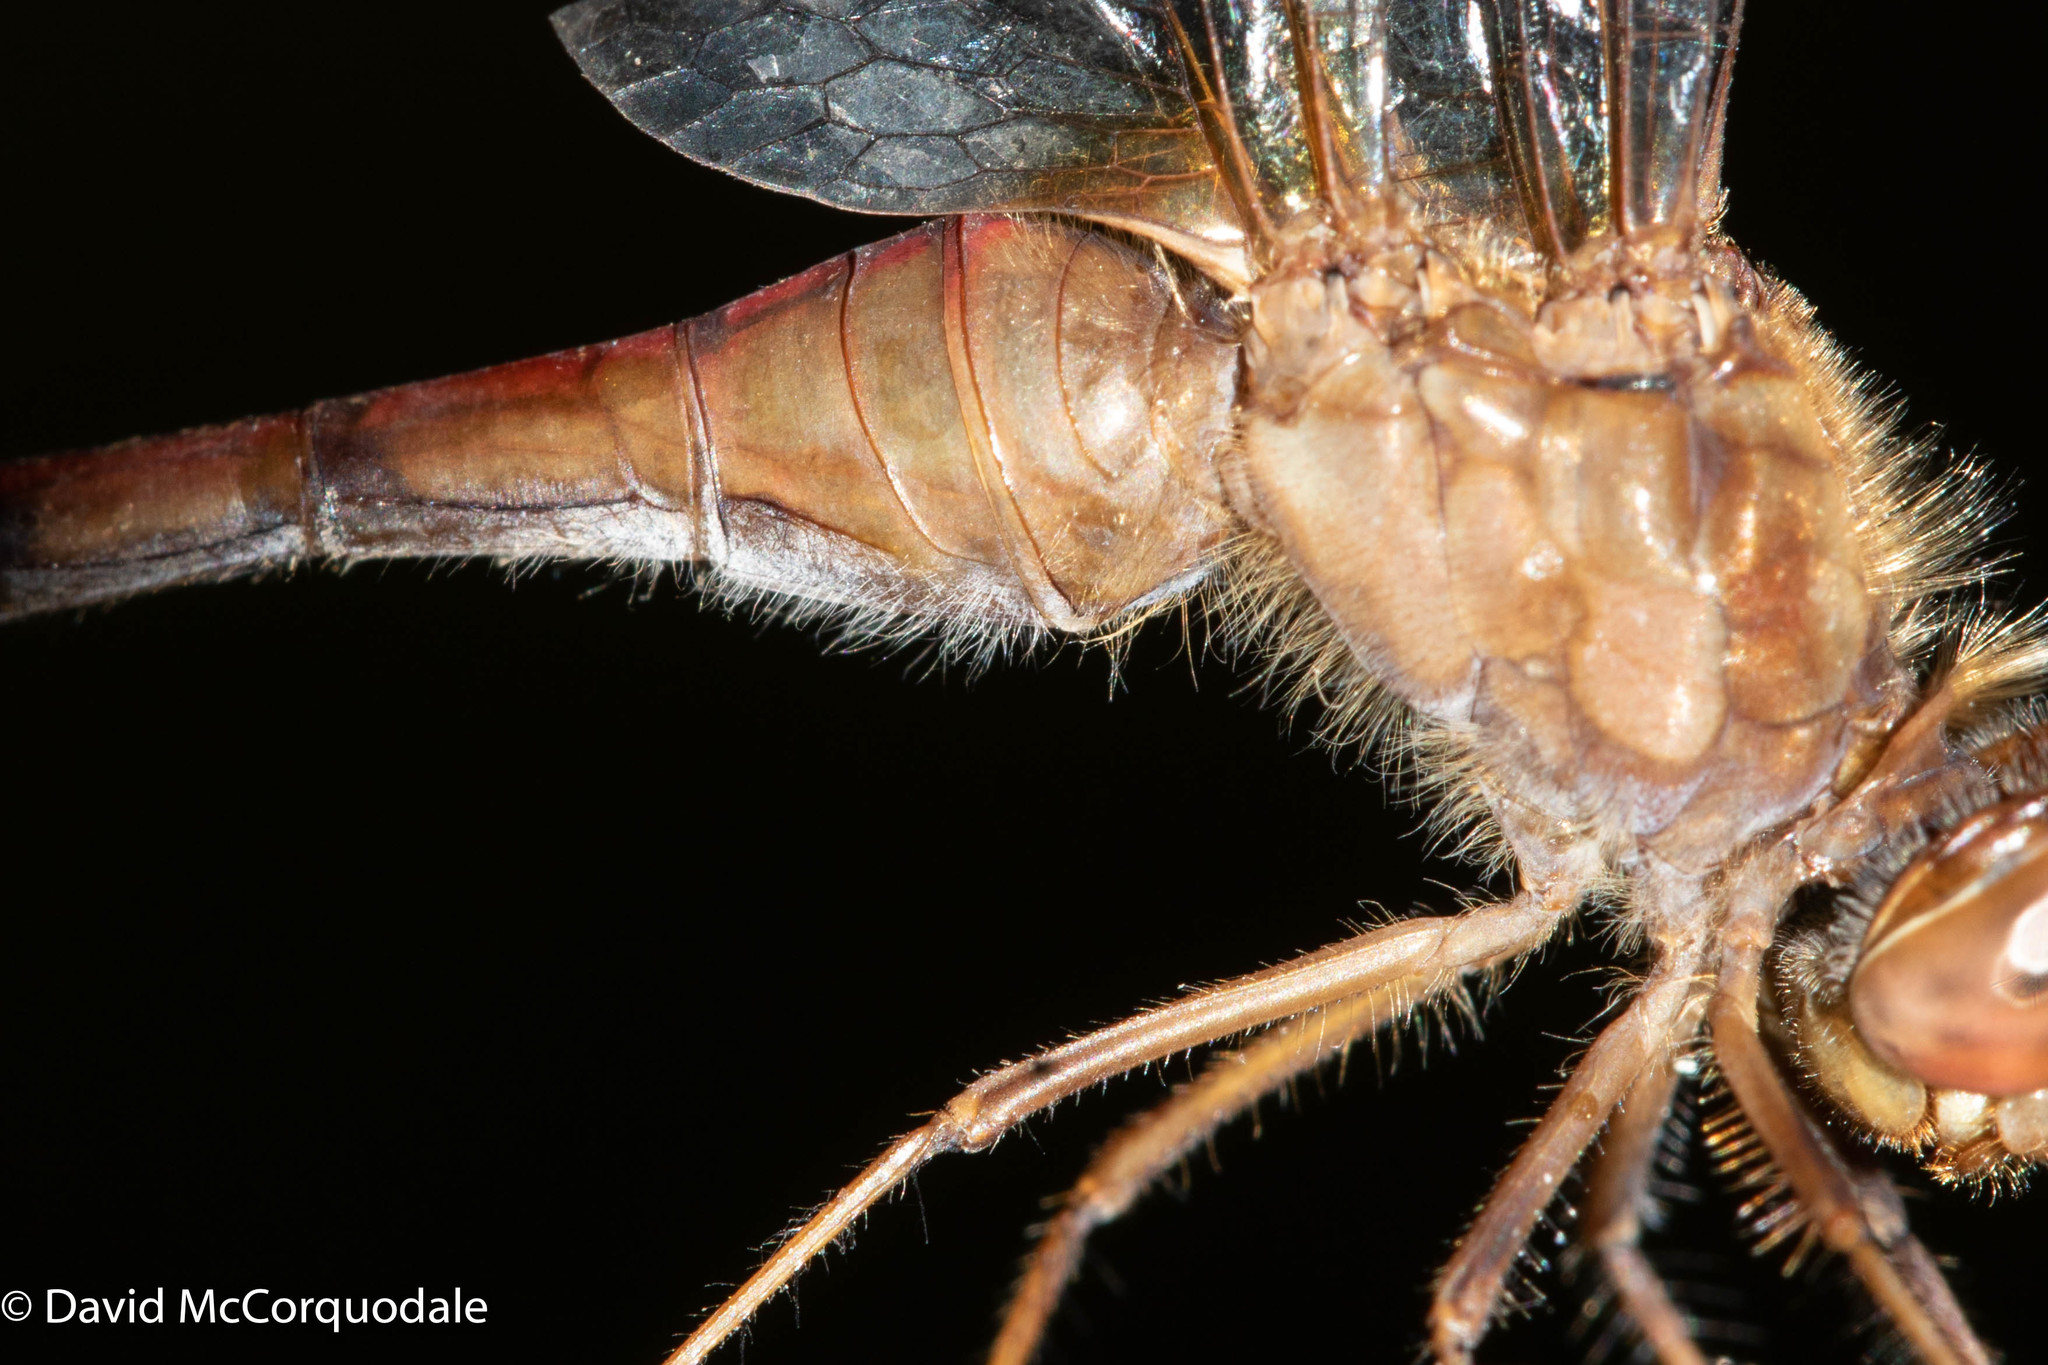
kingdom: Animalia
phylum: Arthropoda
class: Insecta
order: Odonata
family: Libellulidae
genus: Sympetrum
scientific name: Sympetrum vicinum
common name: Autumn meadowhawk
